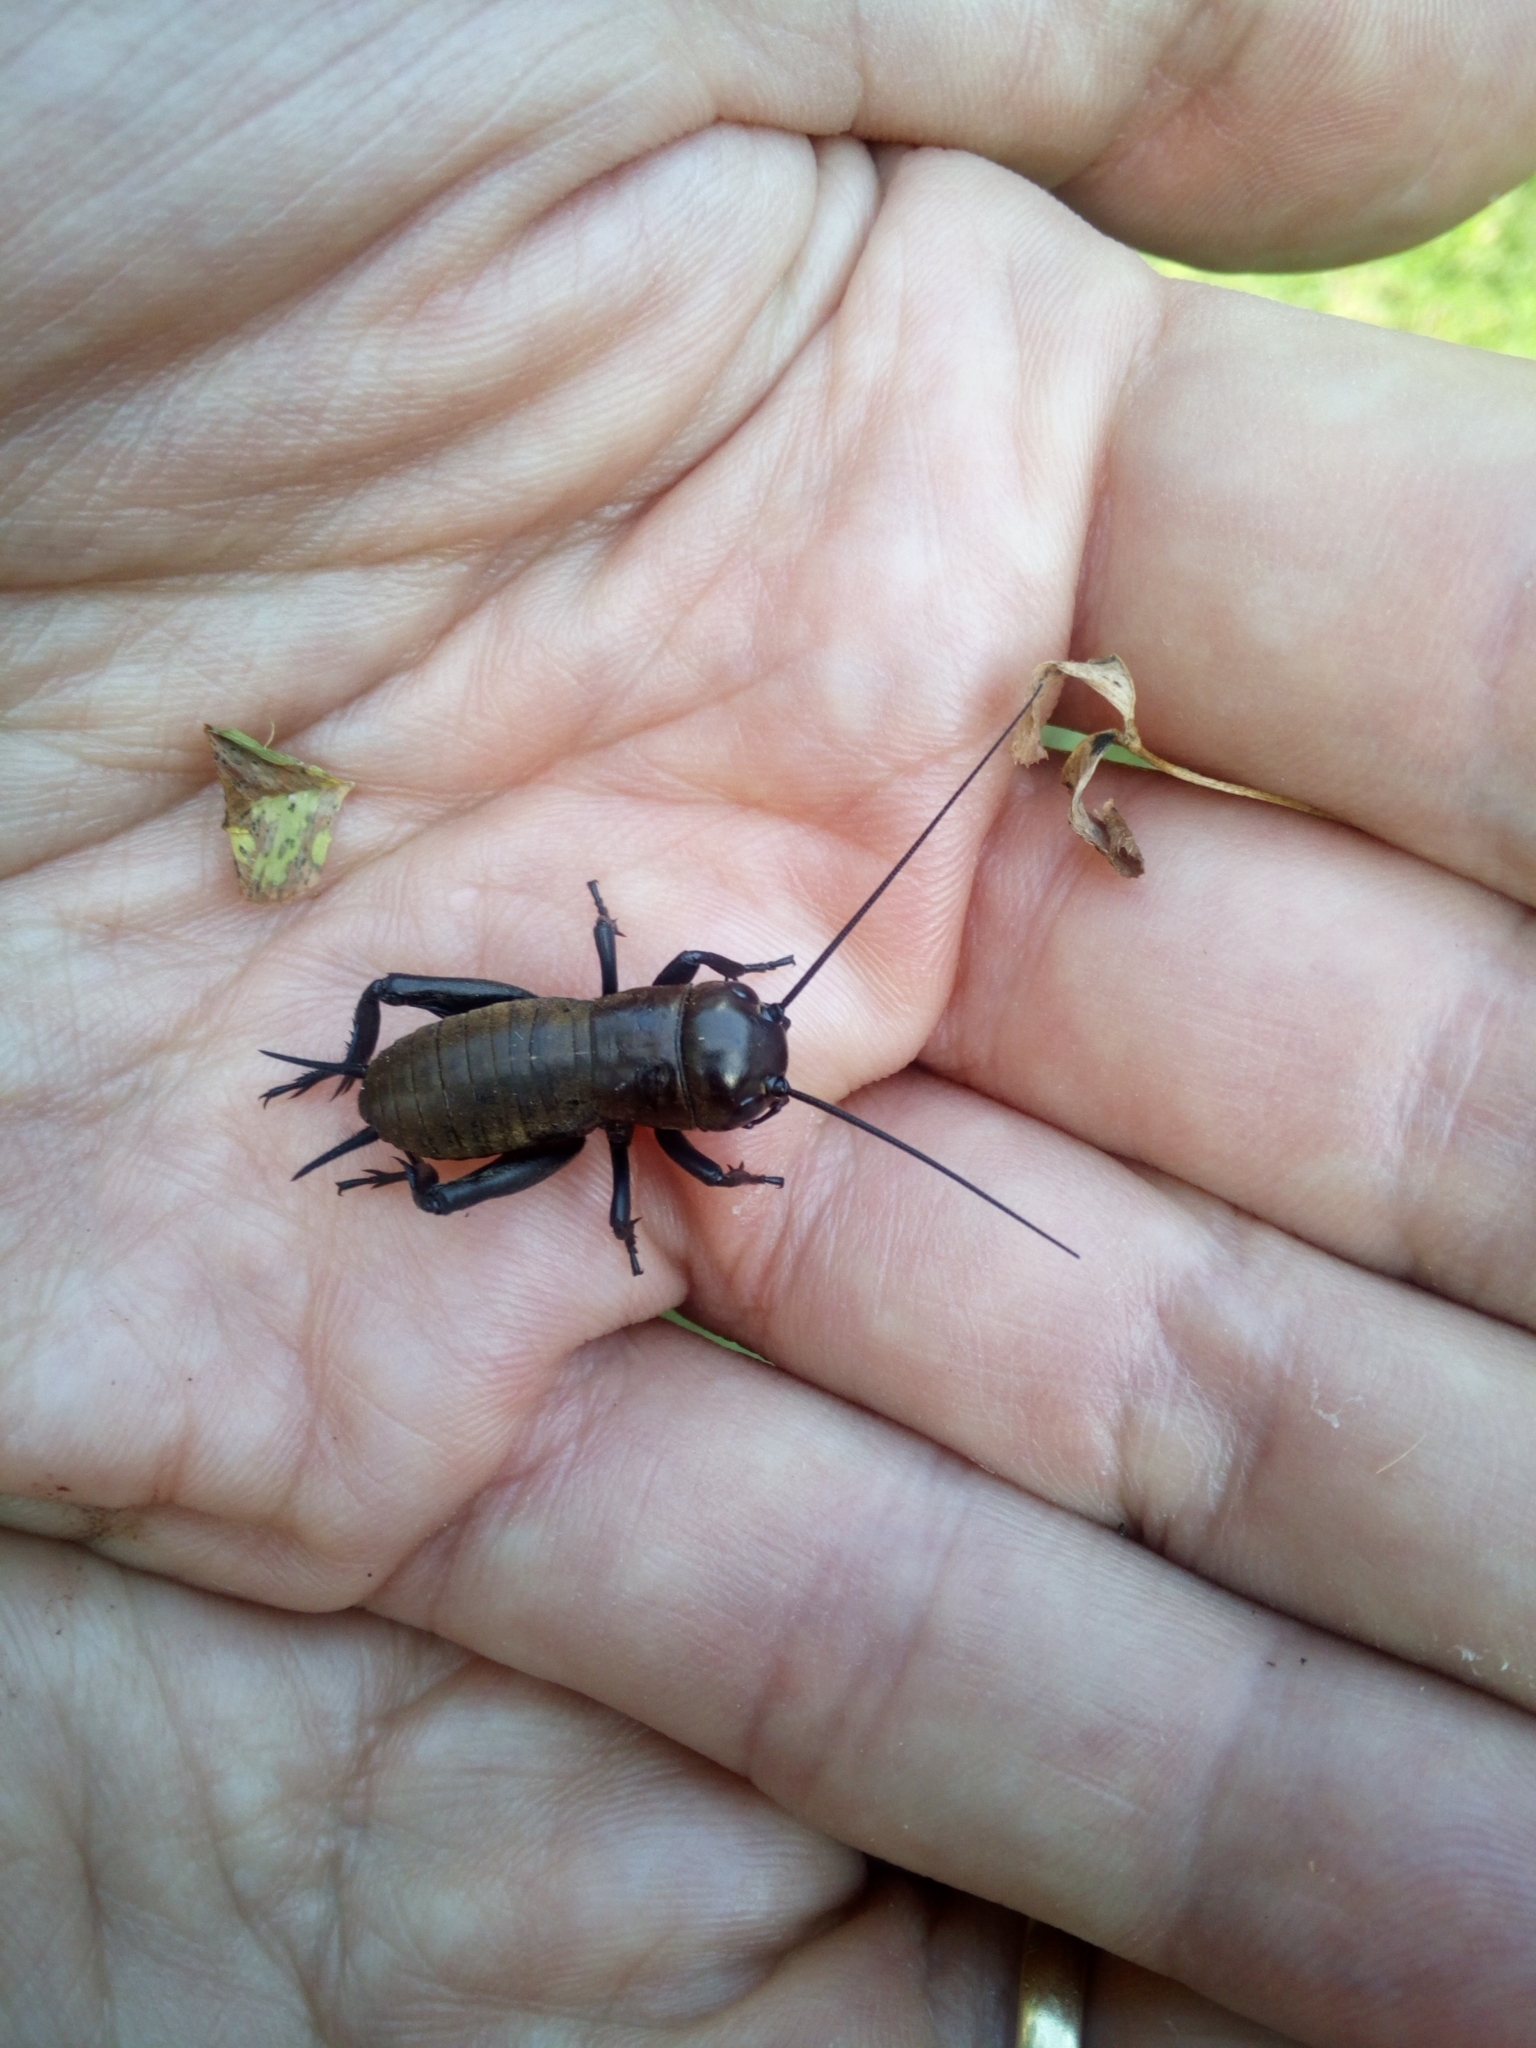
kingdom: Animalia
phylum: Arthropoda
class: Insecta
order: Orthoptera
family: Gryllidae
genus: Gryllus
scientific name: Gryllus campestris
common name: Field cricket
